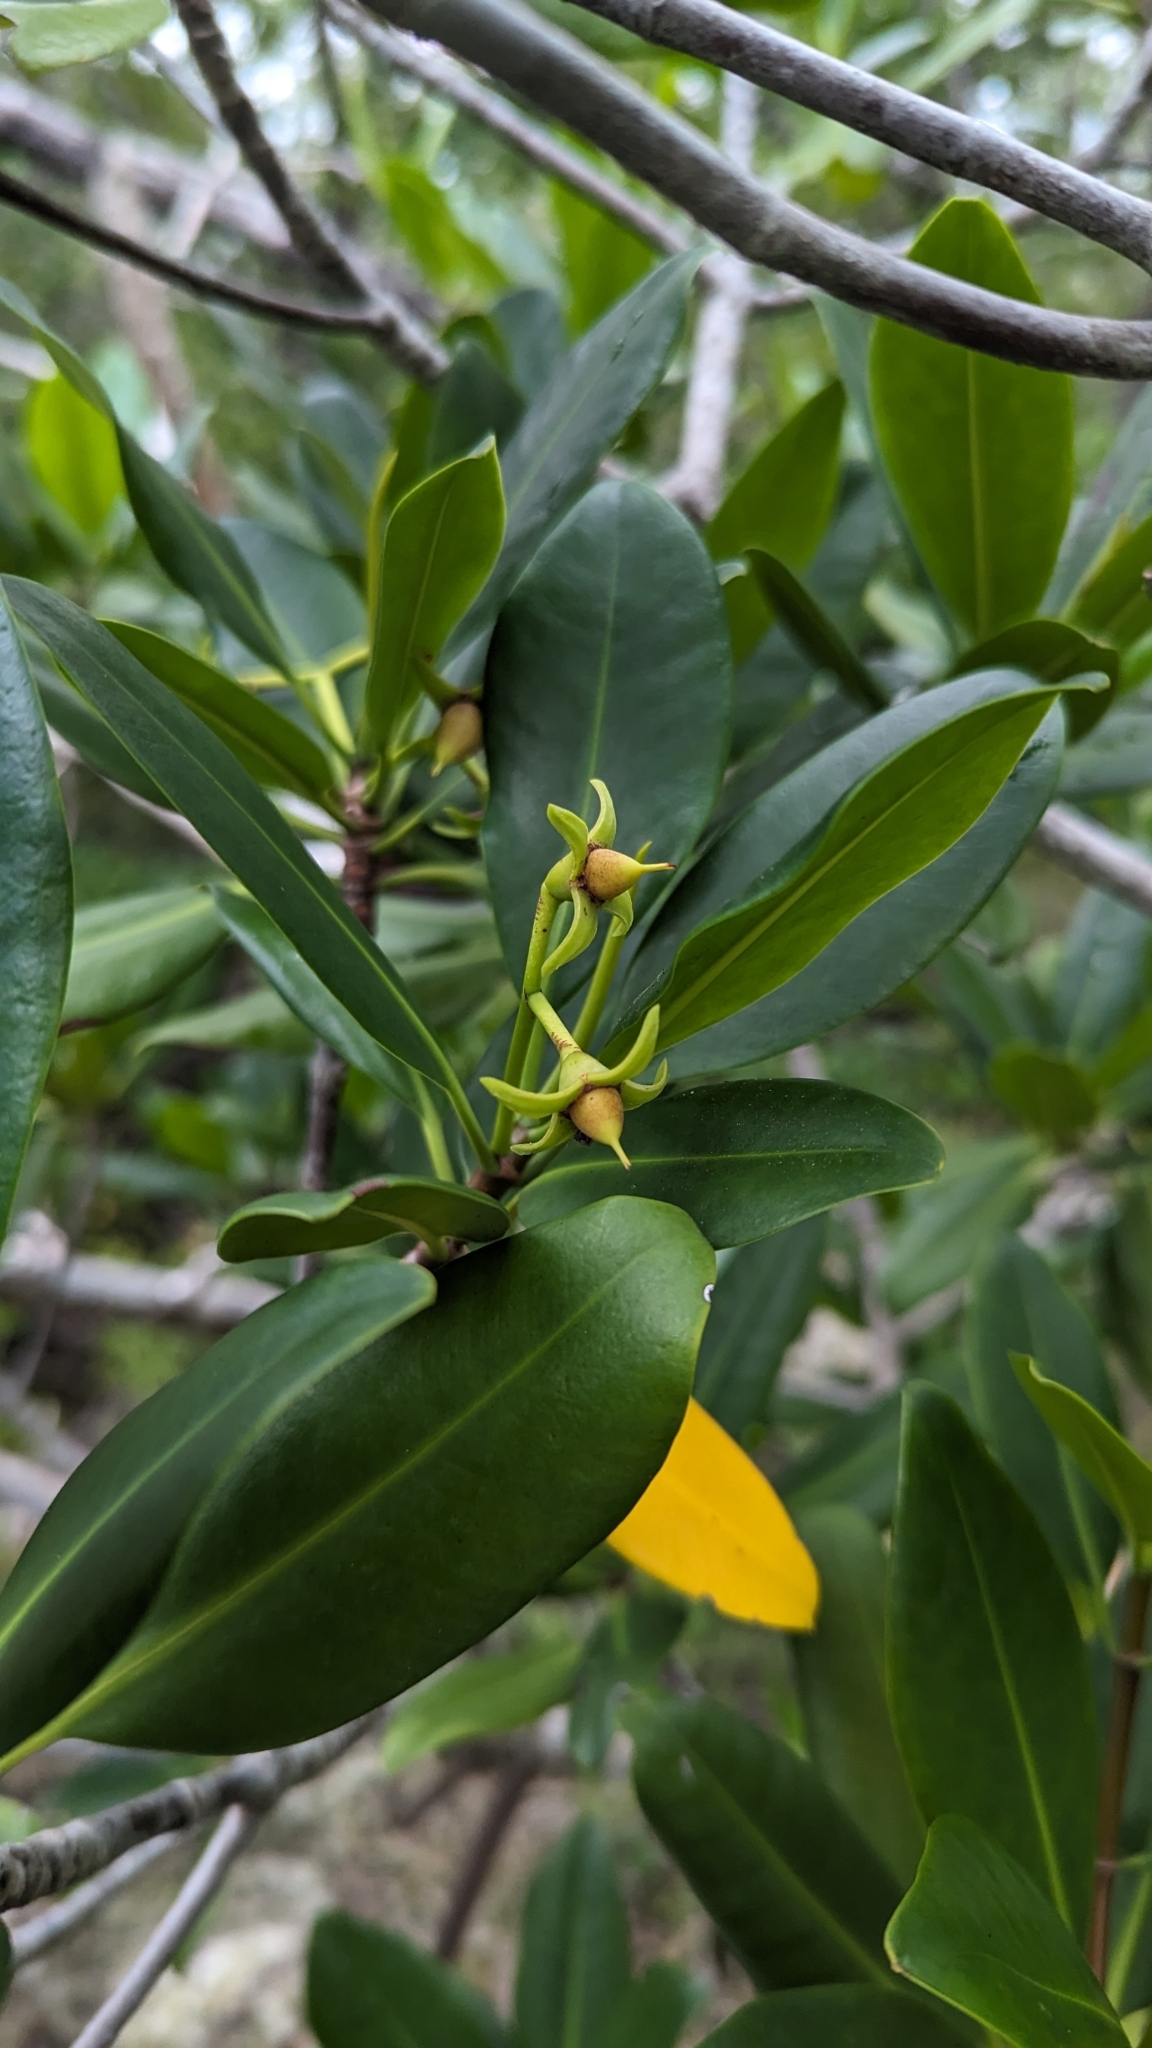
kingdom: Plantae
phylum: Tracheophyta
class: Magnoliopsida
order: Malpighiales
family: Rhizophoraceae
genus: Rhizophora
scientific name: Rhizophora mangle
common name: Red mangrove
